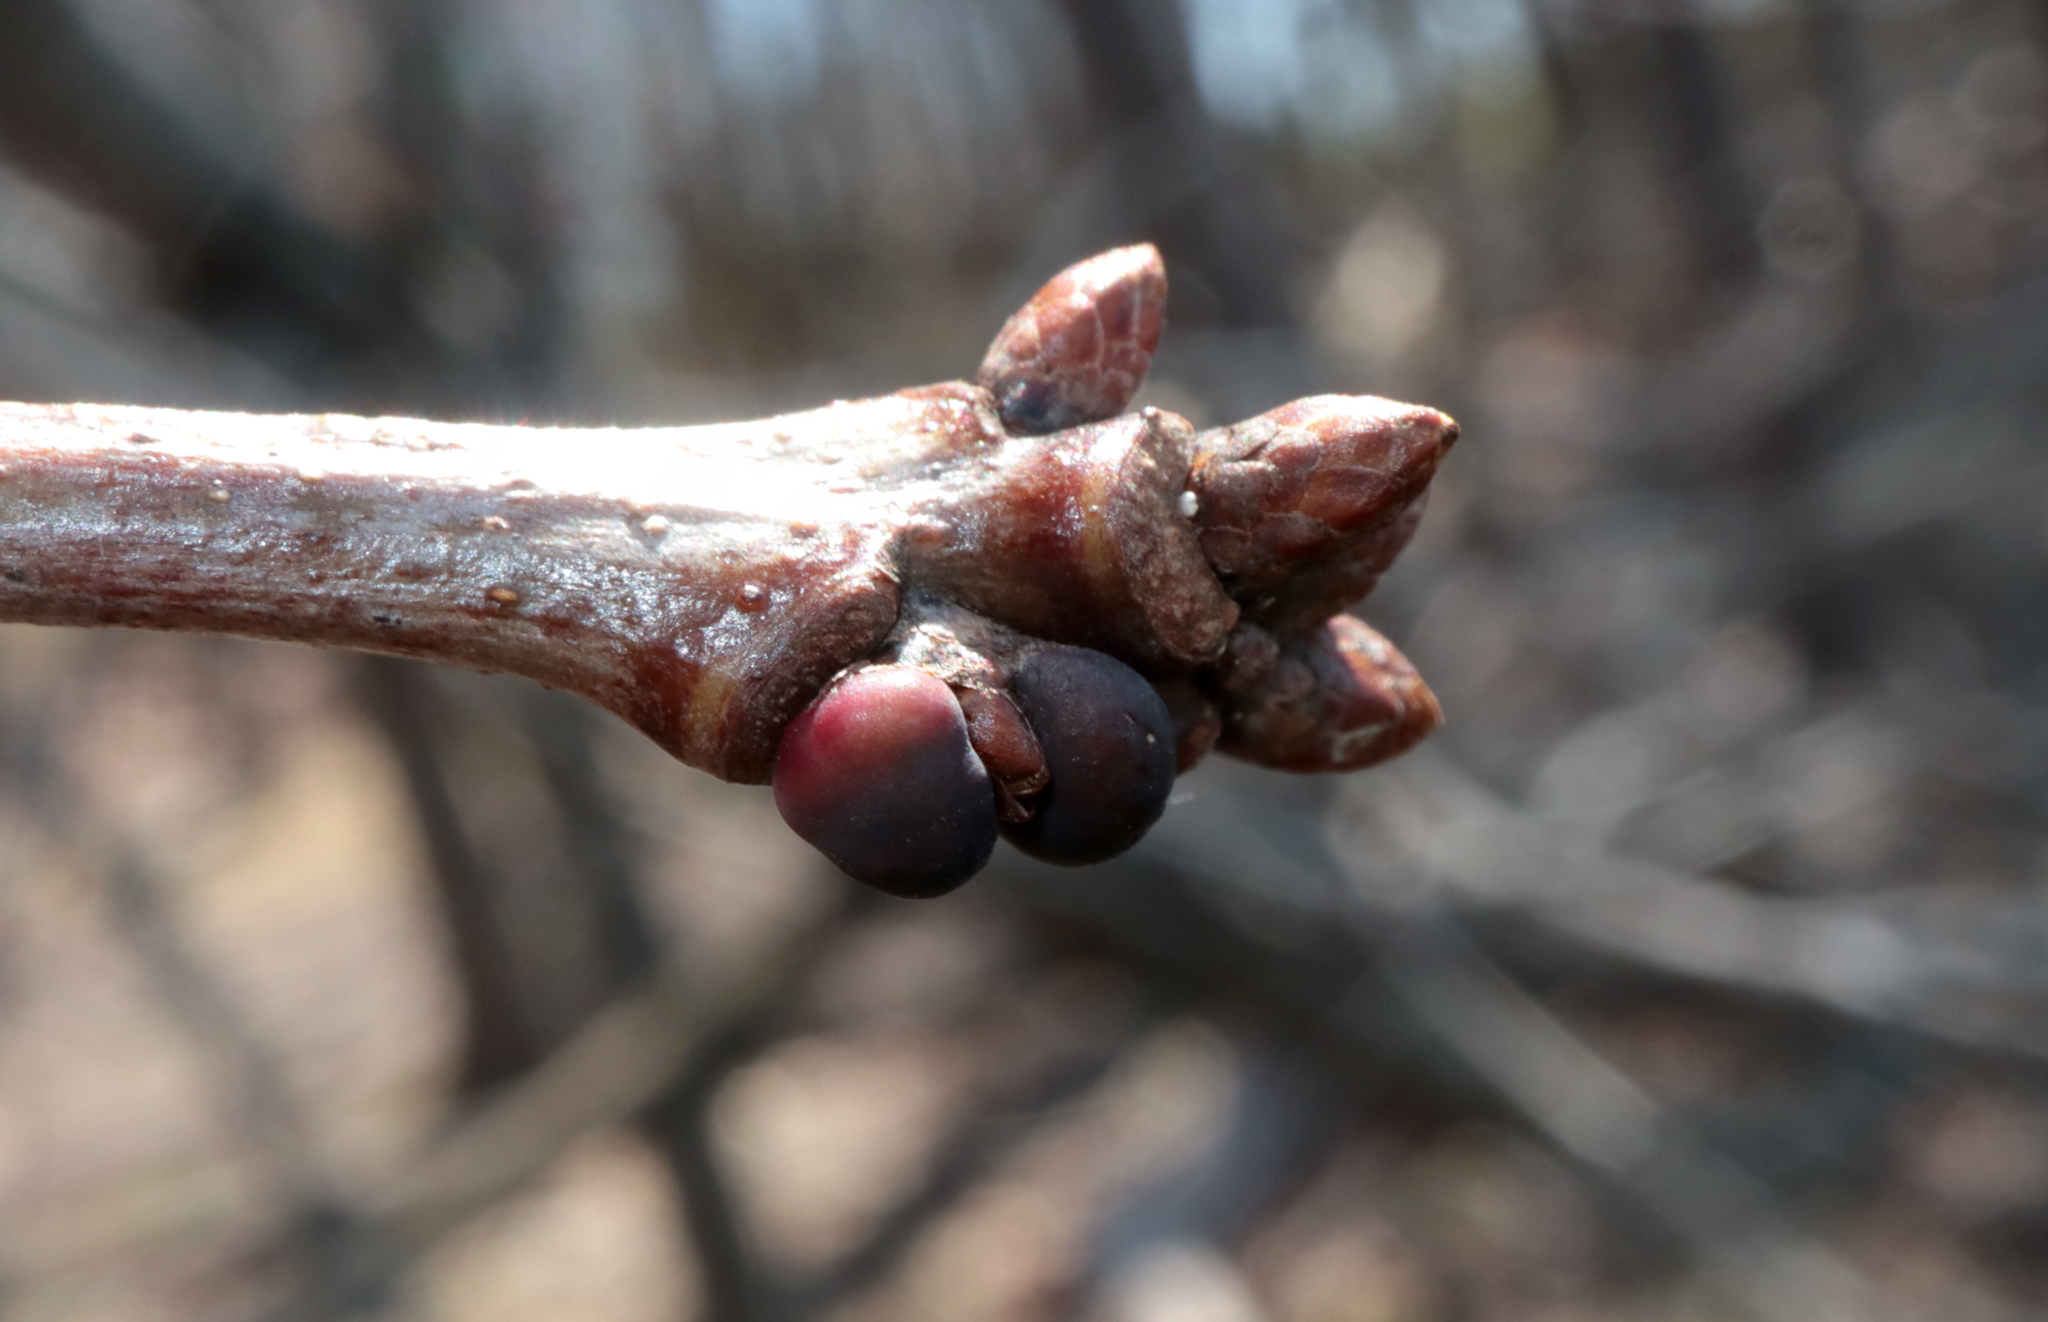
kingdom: Animalia
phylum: Arthropoda
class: Insecta
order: Hymenoptera
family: Cynipidae
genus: Neuroterus
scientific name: Neuroterus
